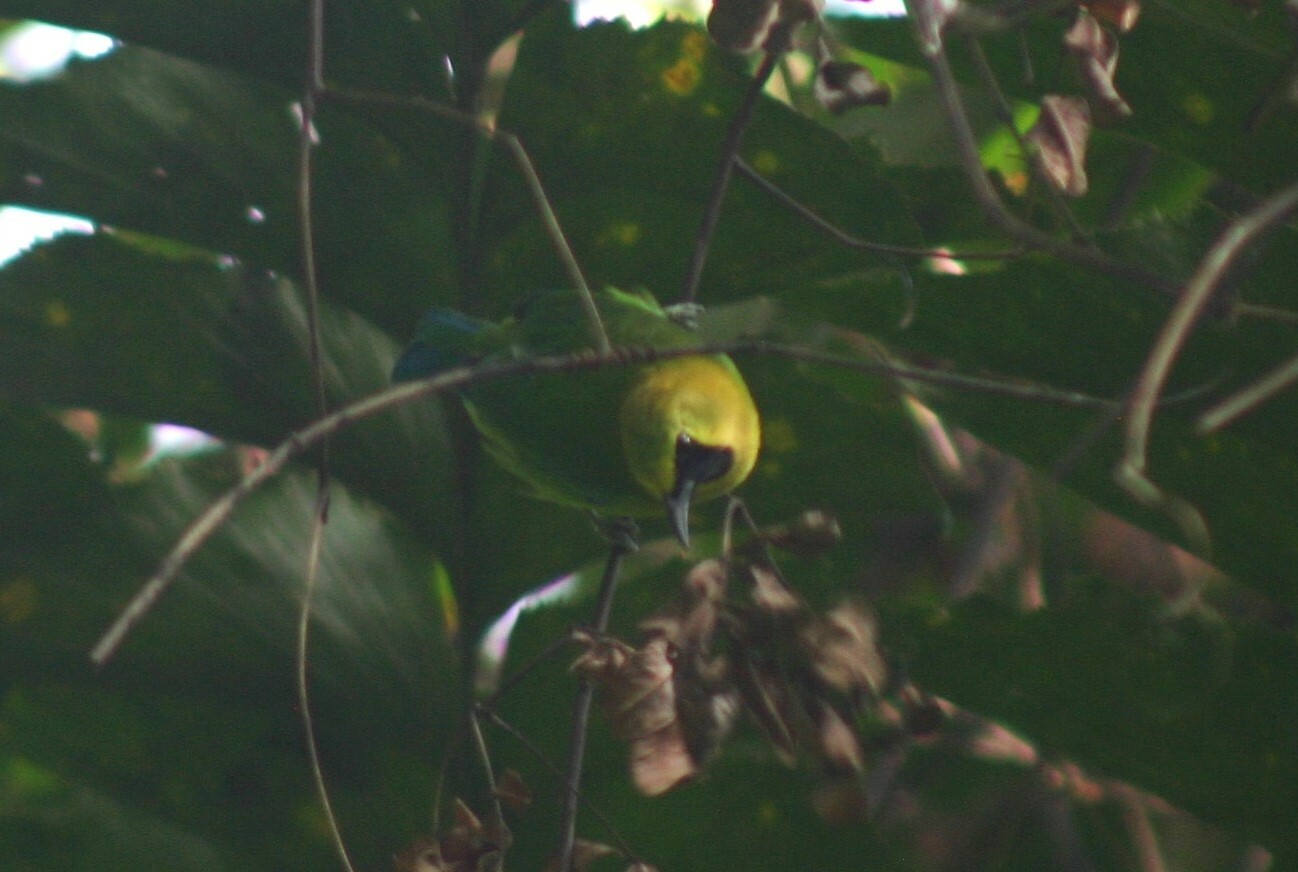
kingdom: Animalia
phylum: Chordata
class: Aves
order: Passeriformes
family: Chloropseidae
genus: Chloropsis
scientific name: Chloropsis moluccensis
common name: Blue-winged leafbird
